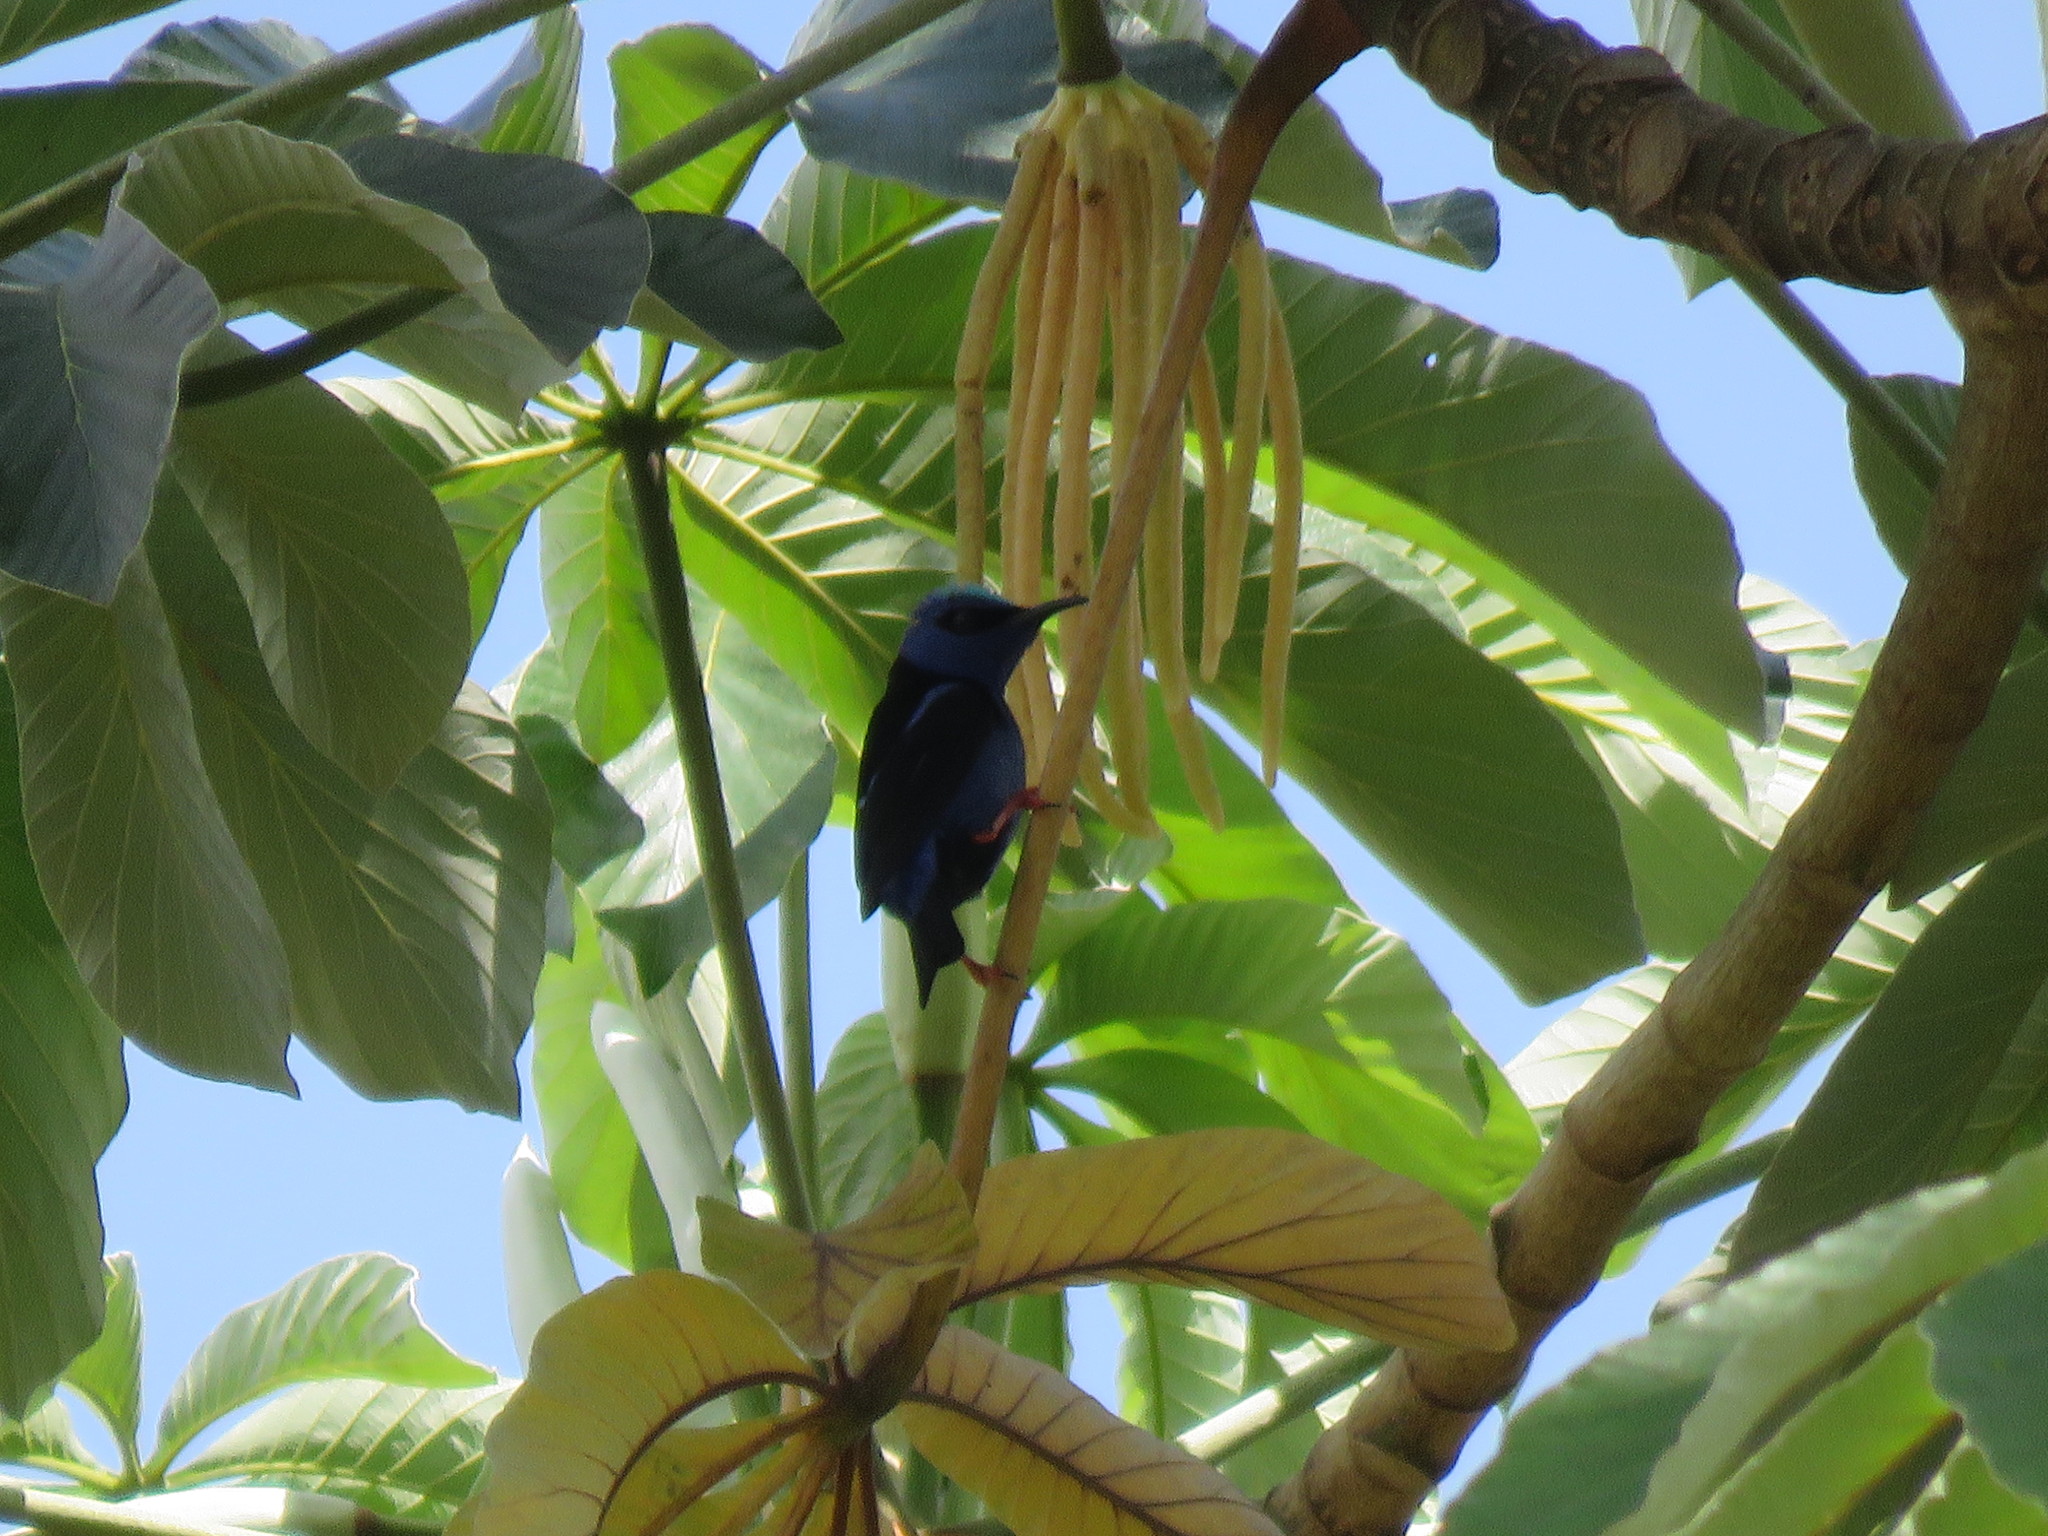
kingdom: Animalia
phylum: Chordata
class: Aves
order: Passeriformes
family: Thraupidae
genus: Cyanerpes
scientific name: Cyanerpes cyaneus
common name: Red-legged honeycreeper
